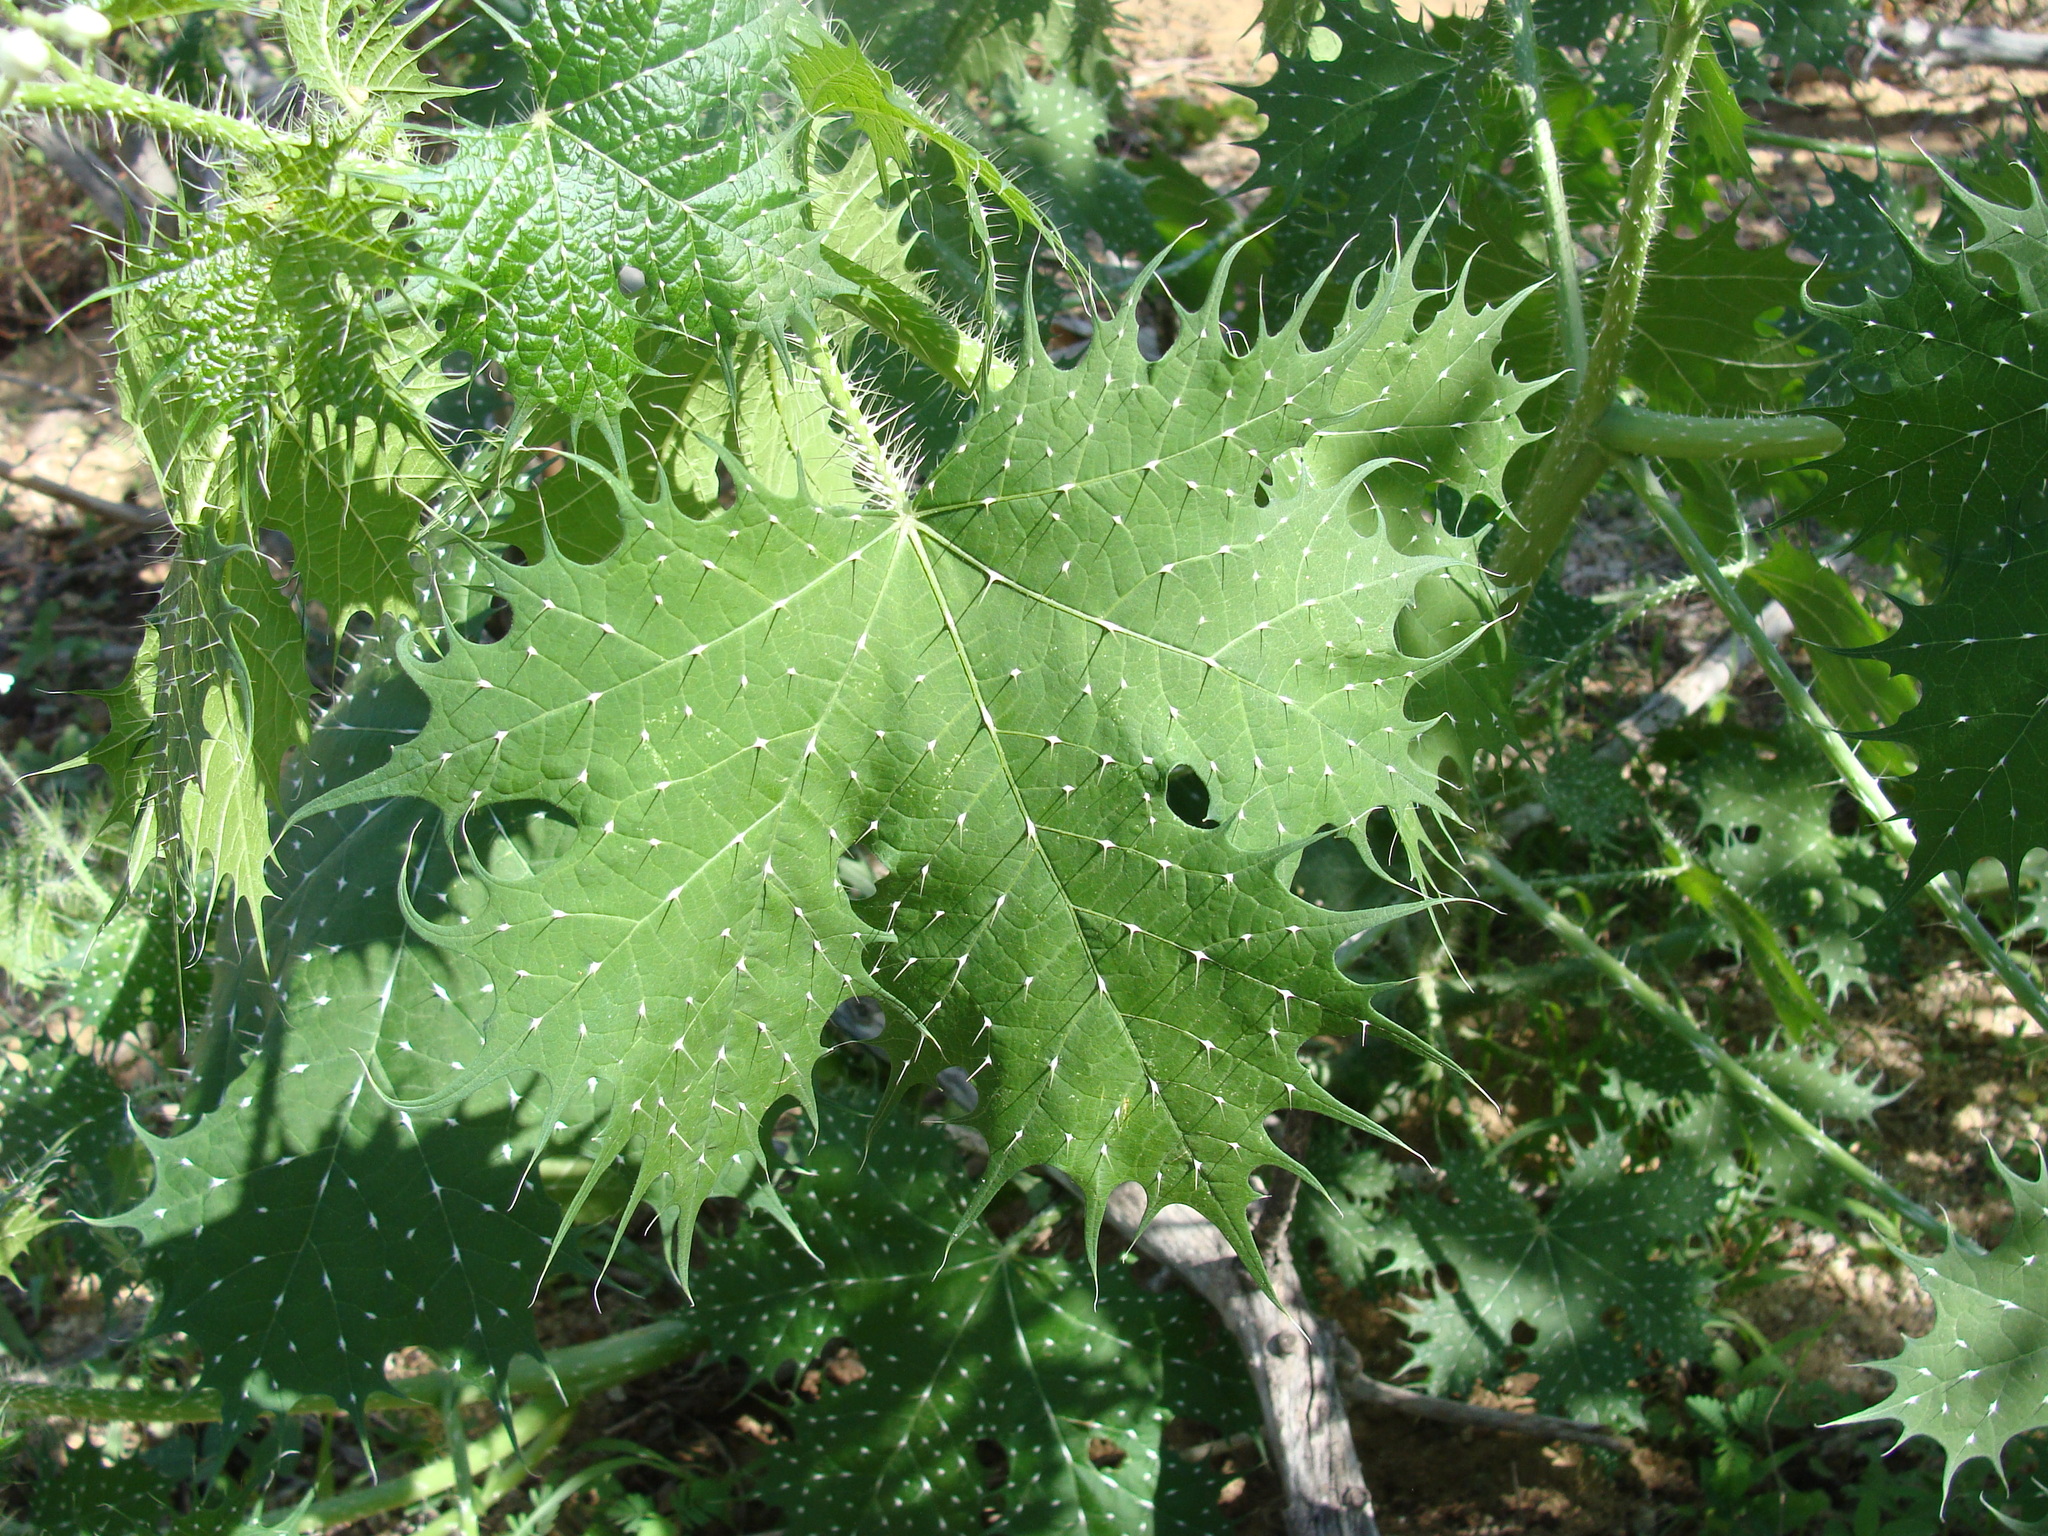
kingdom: Plantae
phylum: Tracheophyta
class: Magnoliopsida
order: Malpighiales
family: Euphorbiaceae
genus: Cnidoscolus
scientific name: Cnidoscolus maculatus
